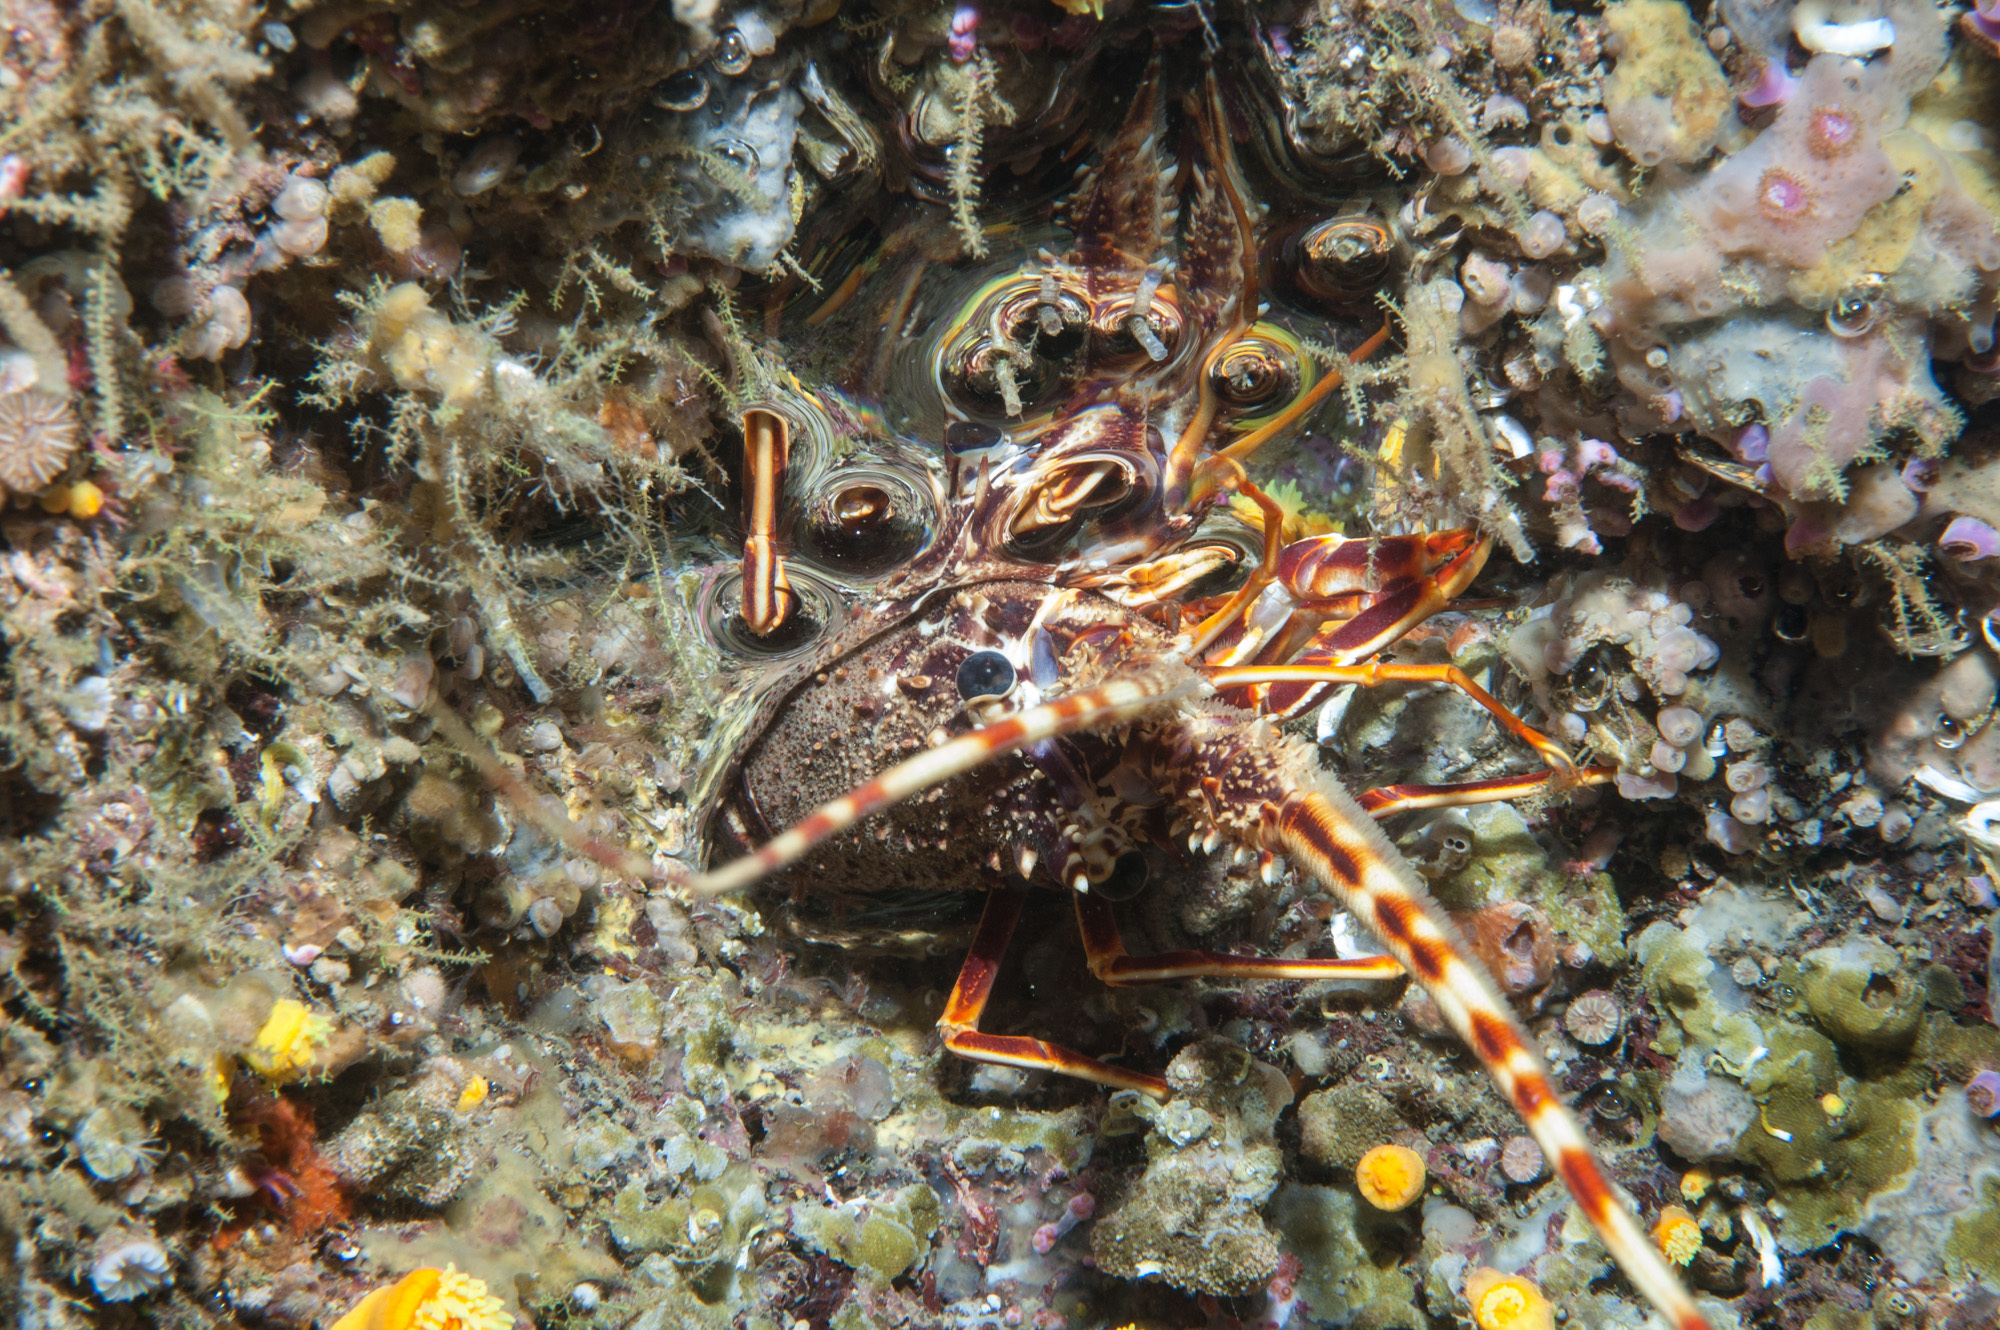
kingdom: Animalia
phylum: Arthropoda
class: Malacostraca
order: Decapoda
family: Palinuridae
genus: Palinurus
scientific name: Palinurus elephas
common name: European spiny lobster
